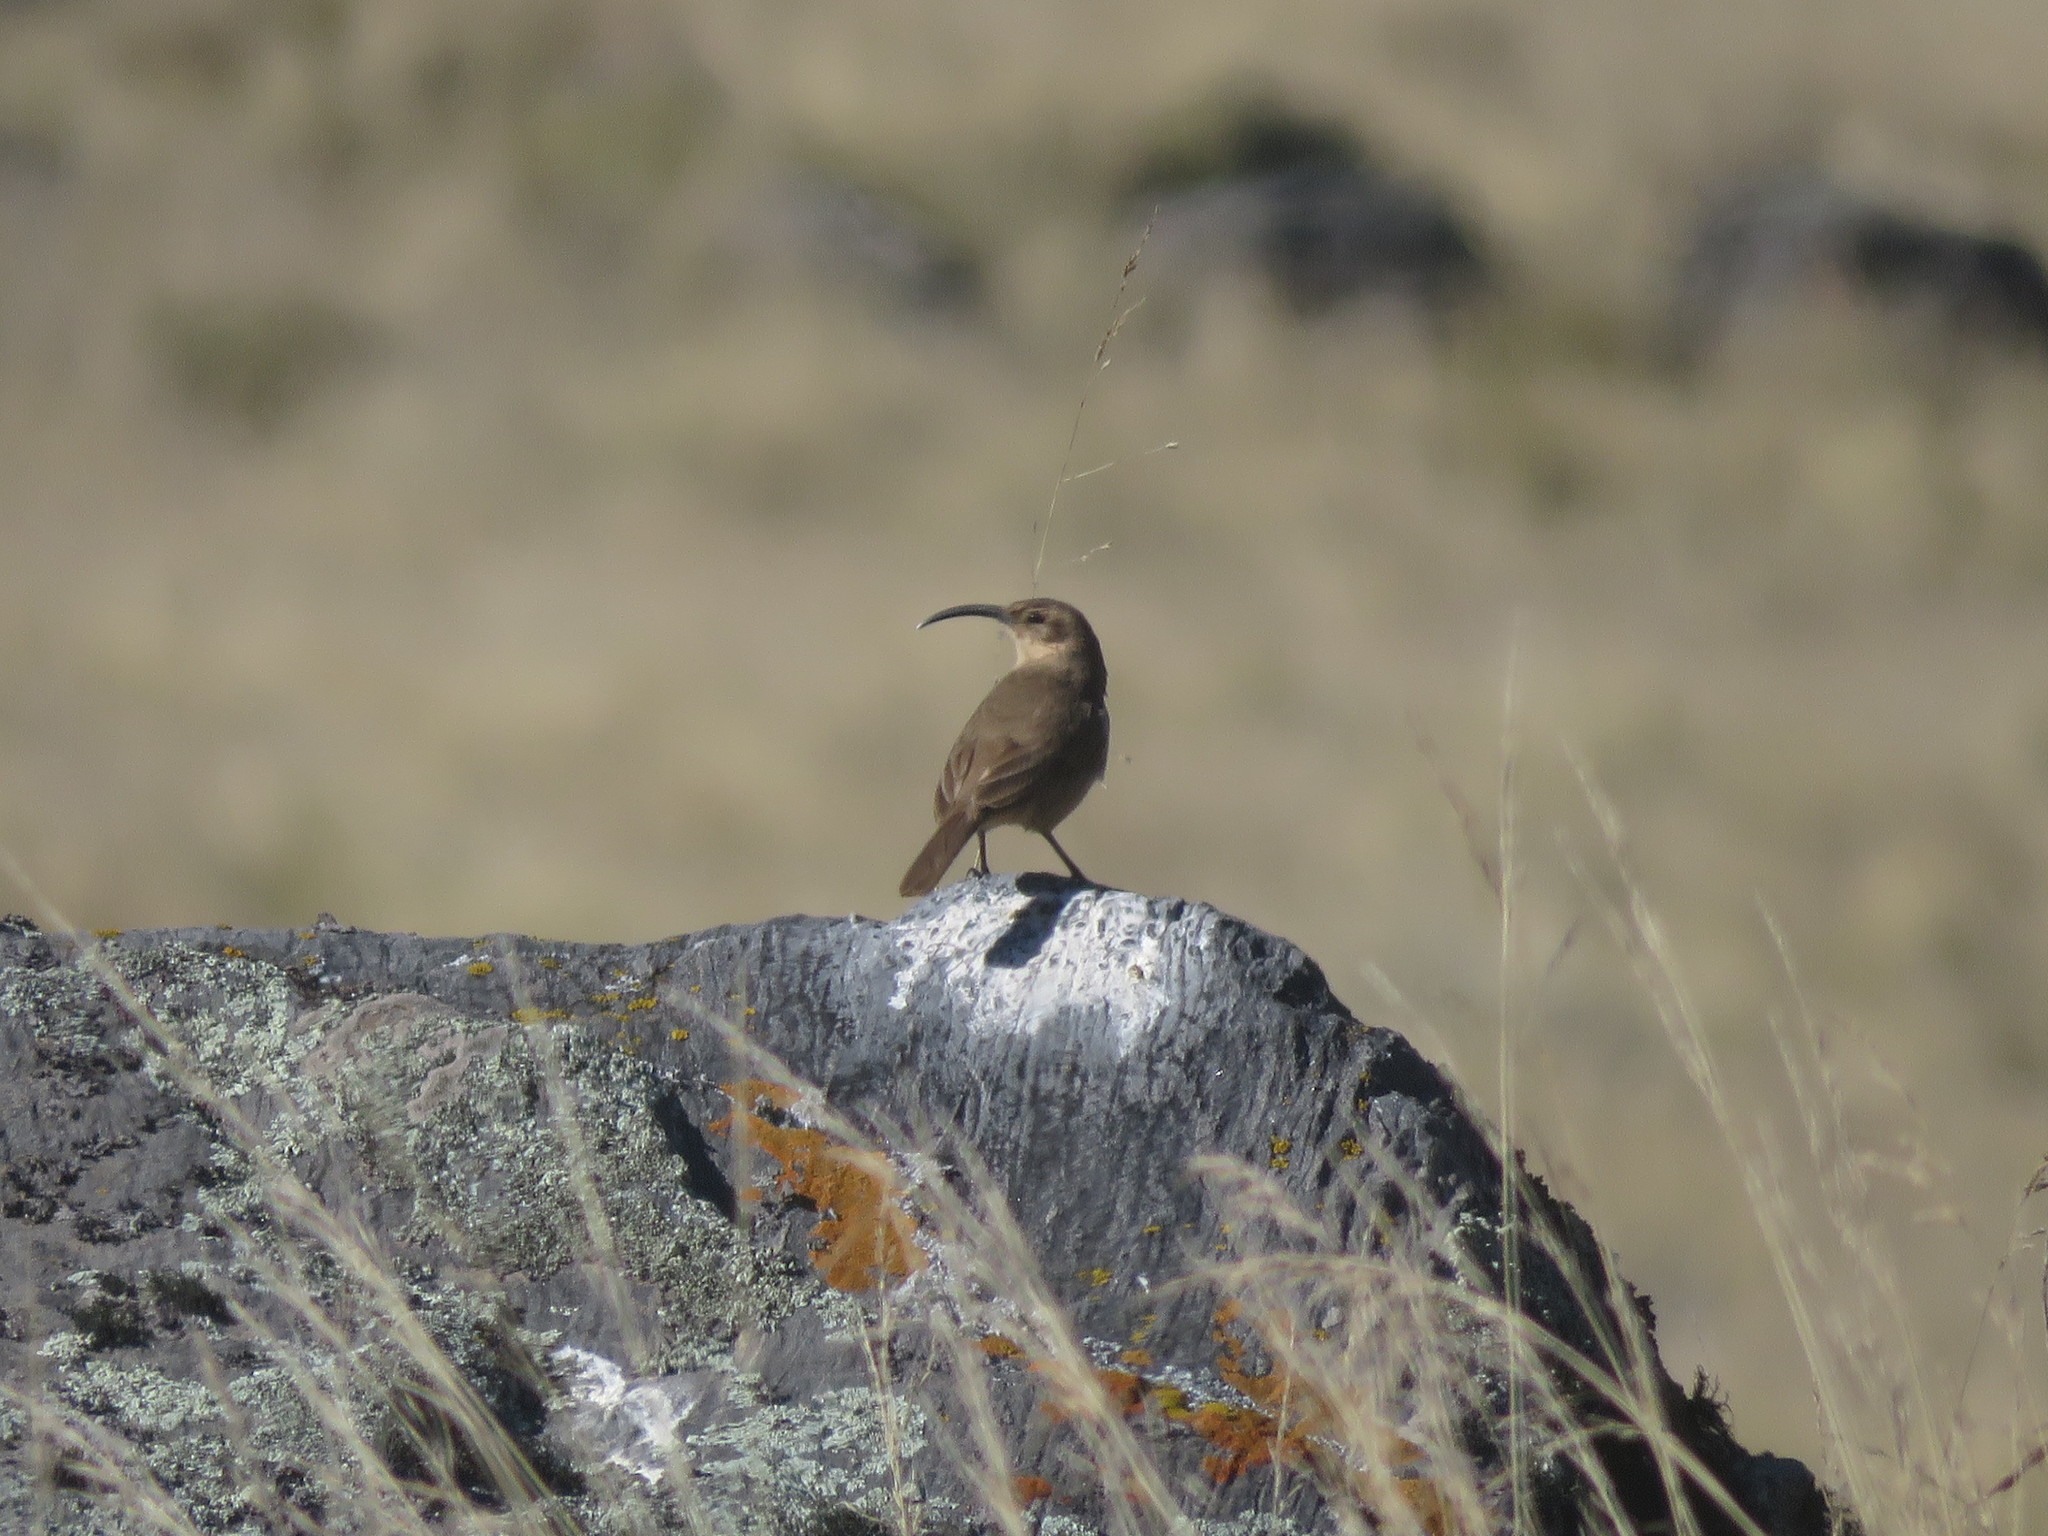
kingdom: Animalia
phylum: Chordata
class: Aves
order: Passeriformes
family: Furnariidae
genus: Upucerthia
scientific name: Upucerthia validirostris
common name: Buff-breasted earthcreeper
